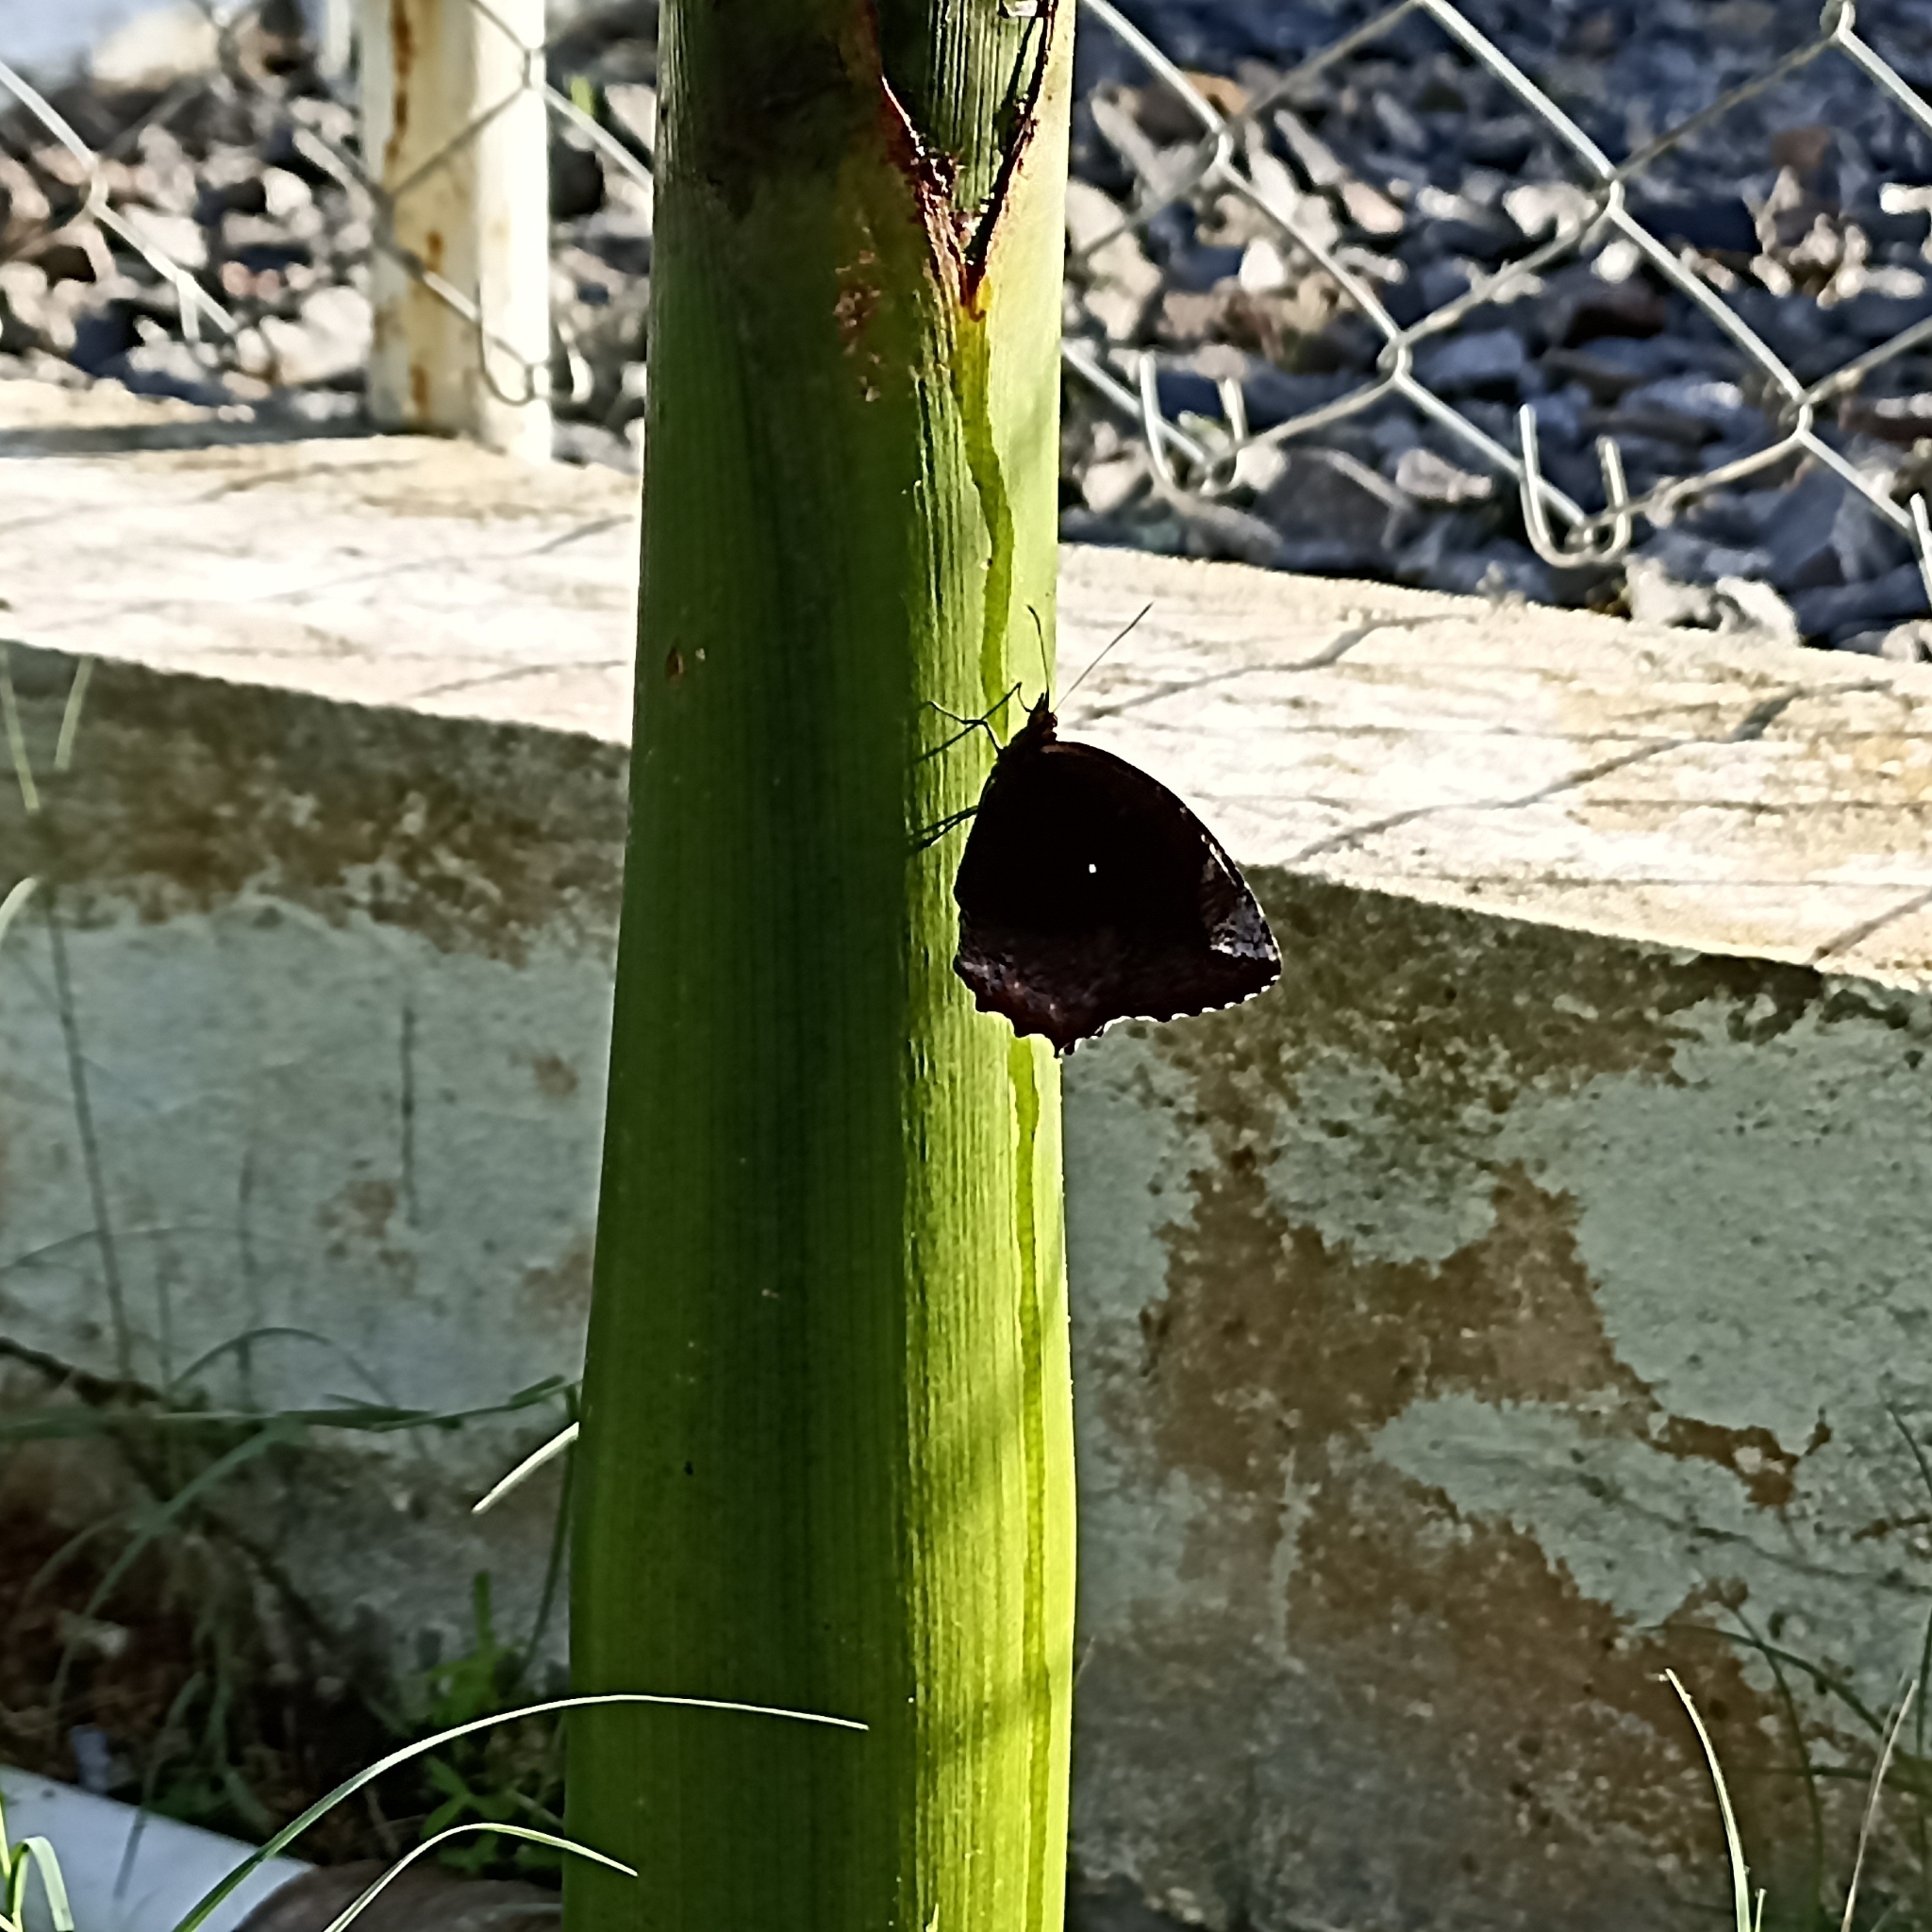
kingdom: Animalia
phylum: Arthropoda
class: Insecta
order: Lepidoptera
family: Nymphalidae
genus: Elymnias
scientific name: Elymnias hypermnestra
